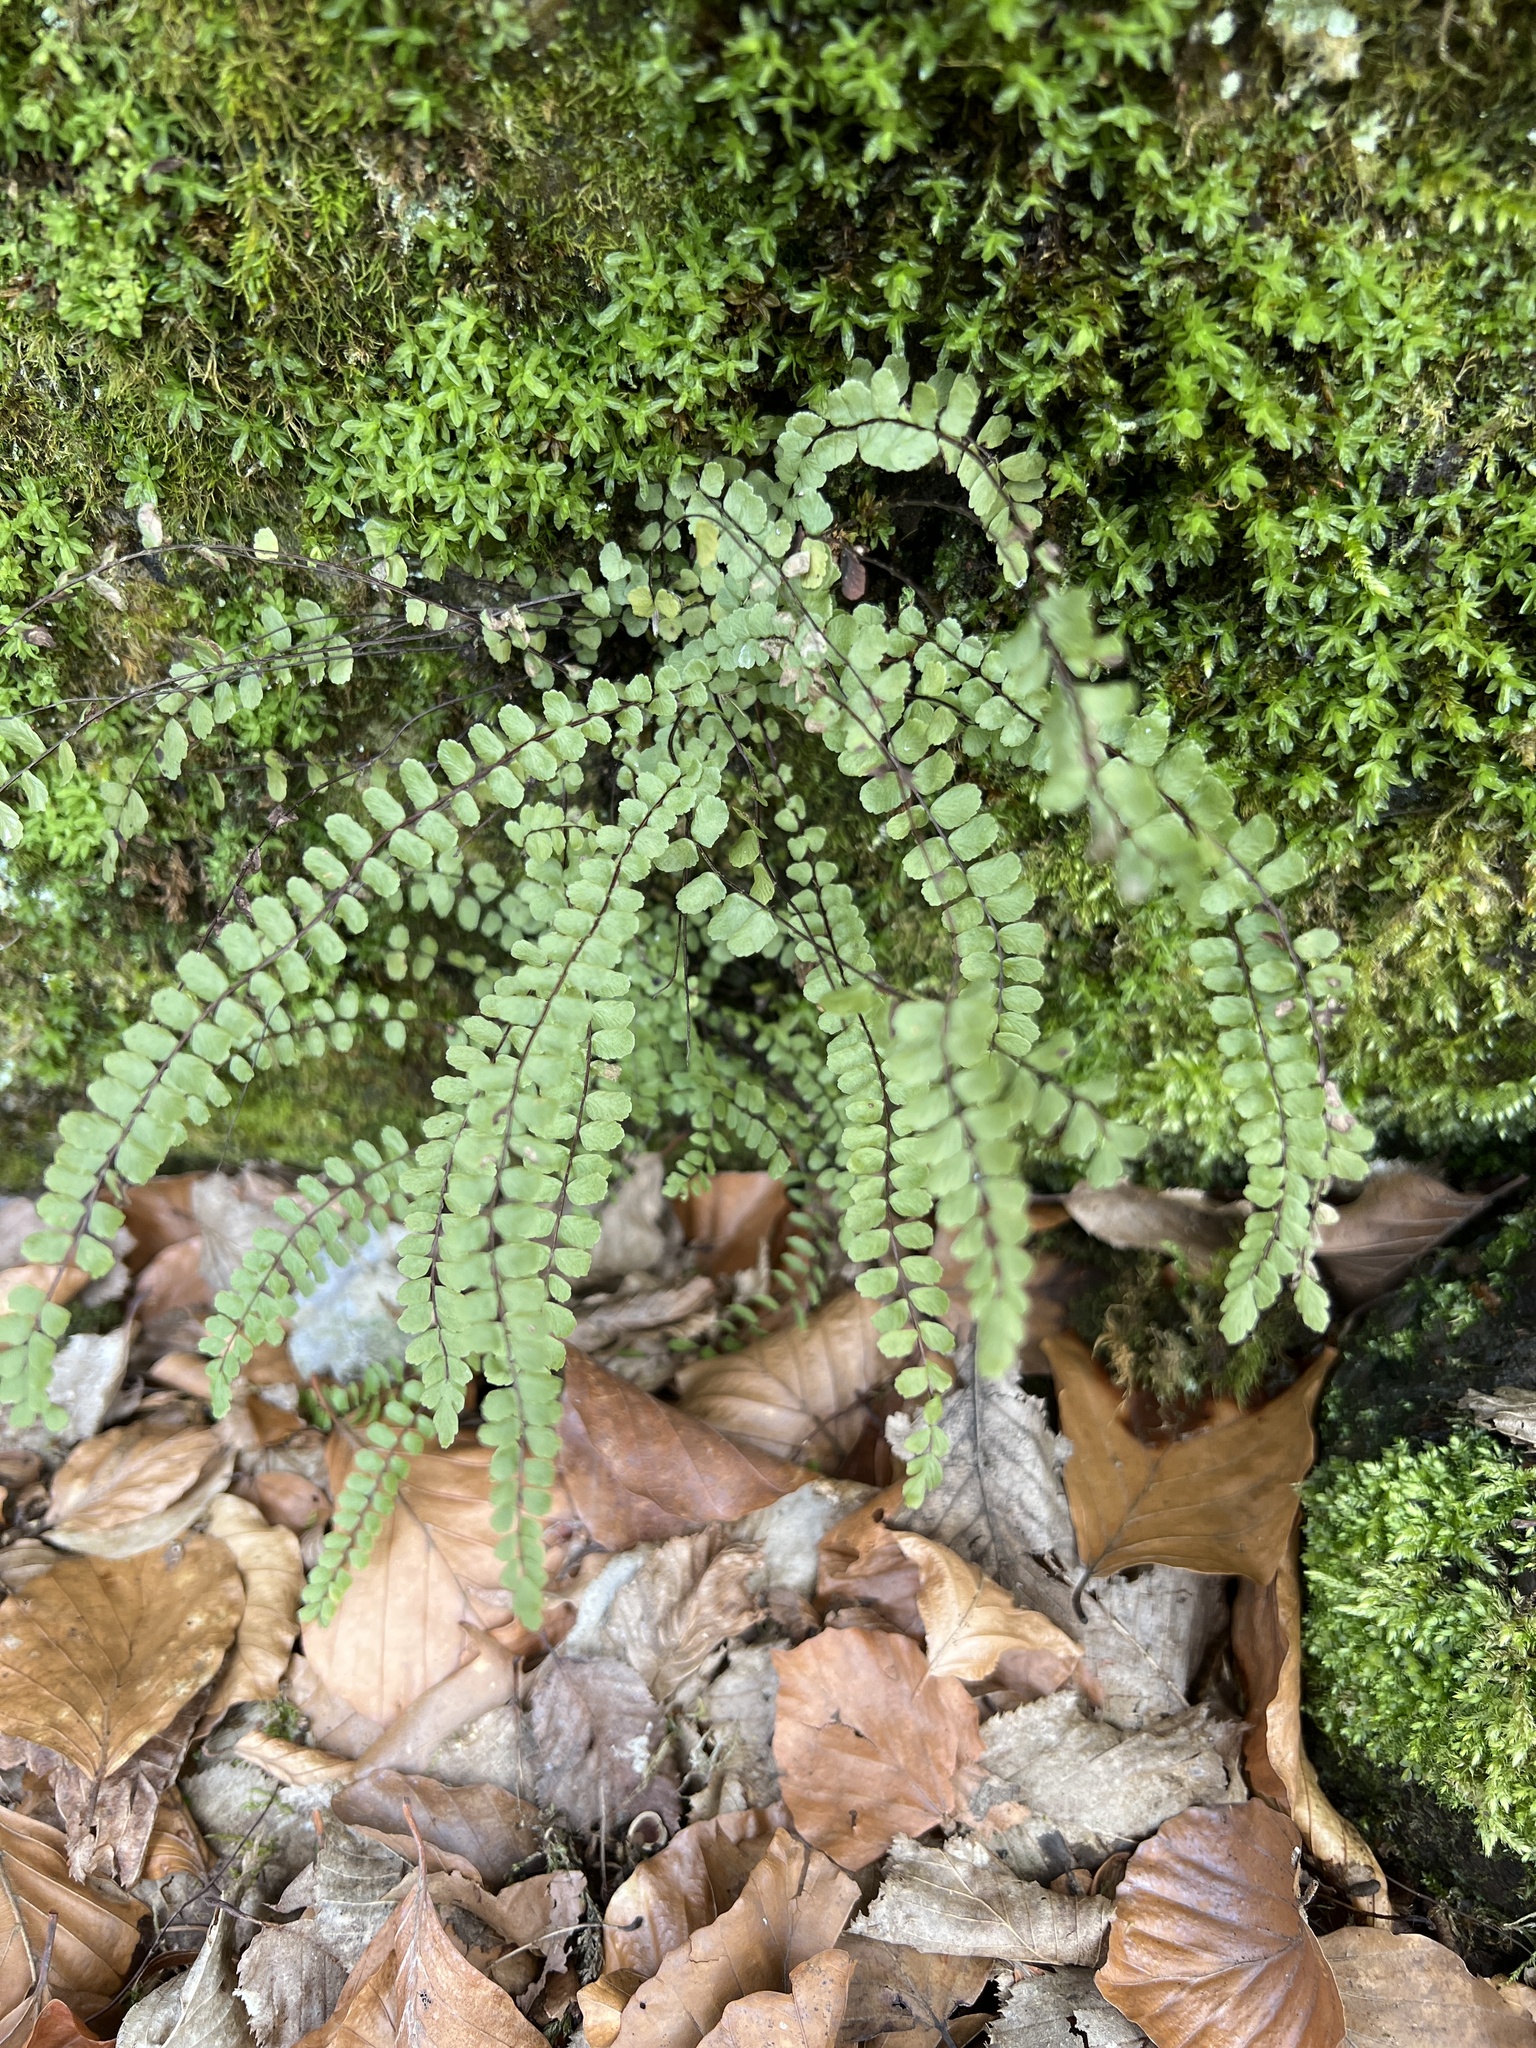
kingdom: Plantae
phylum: Tracheophyta
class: Polypodiopsida
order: Polypodiales
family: Aspleniaceae
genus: Asplenium
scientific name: Asplenium trichomanes
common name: Maidenhair spleenwort
